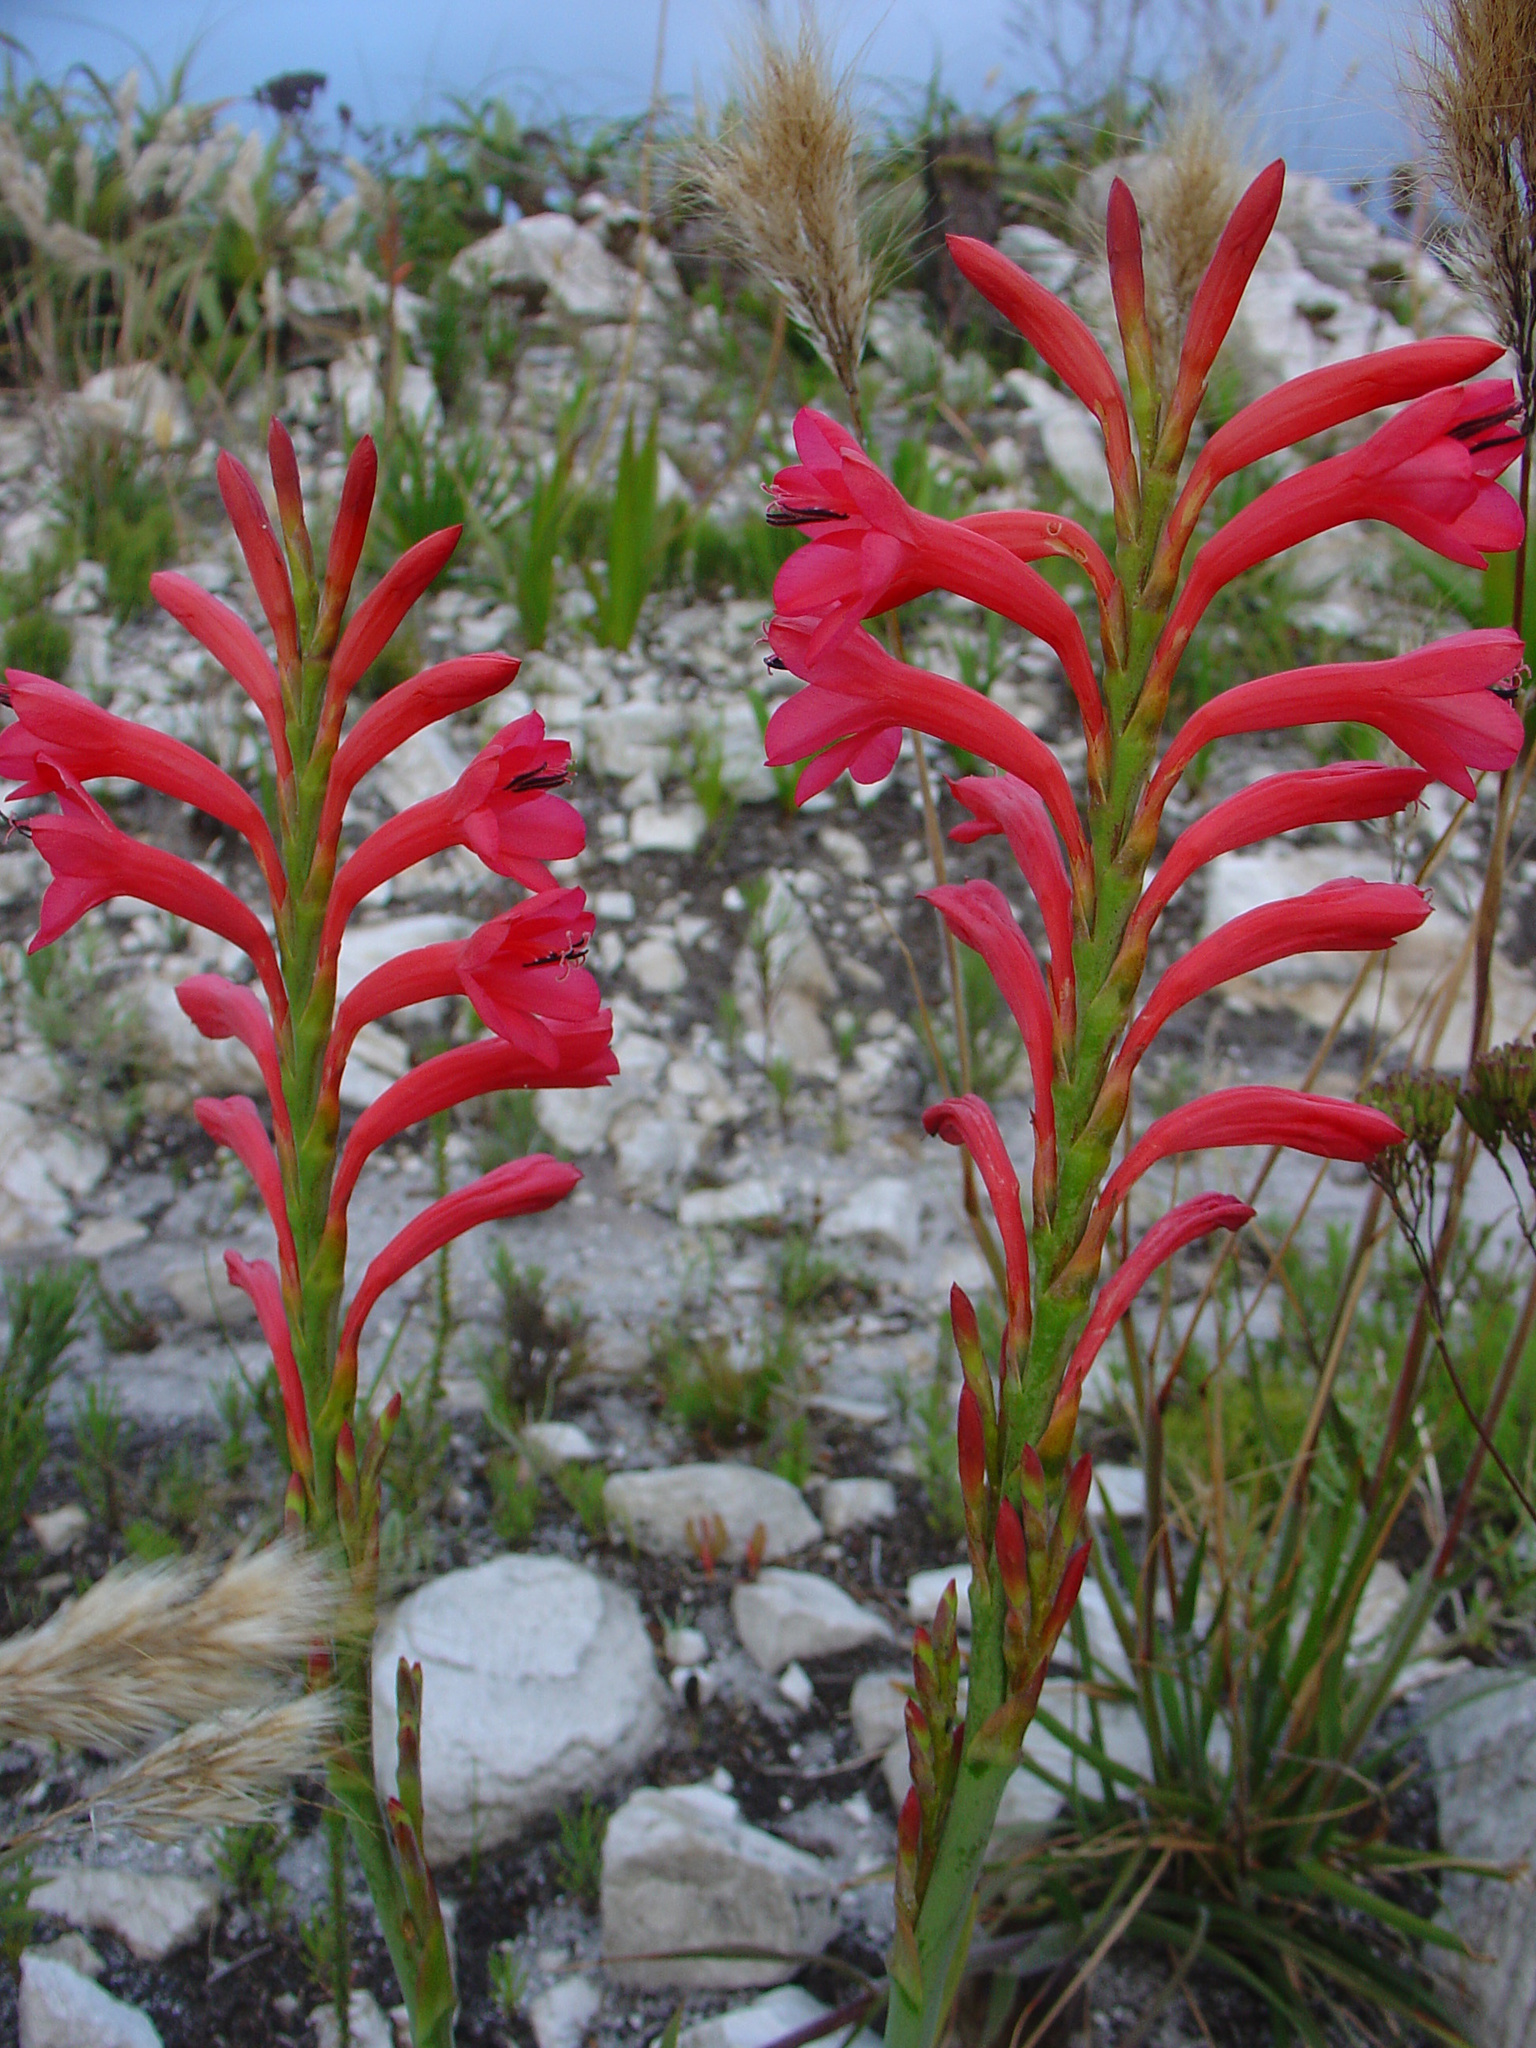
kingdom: Plantae
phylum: Tracheophyta
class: Liliopsida
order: Asparagales
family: Iridaceae
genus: Watsonia
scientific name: Watsonia paucifolia
